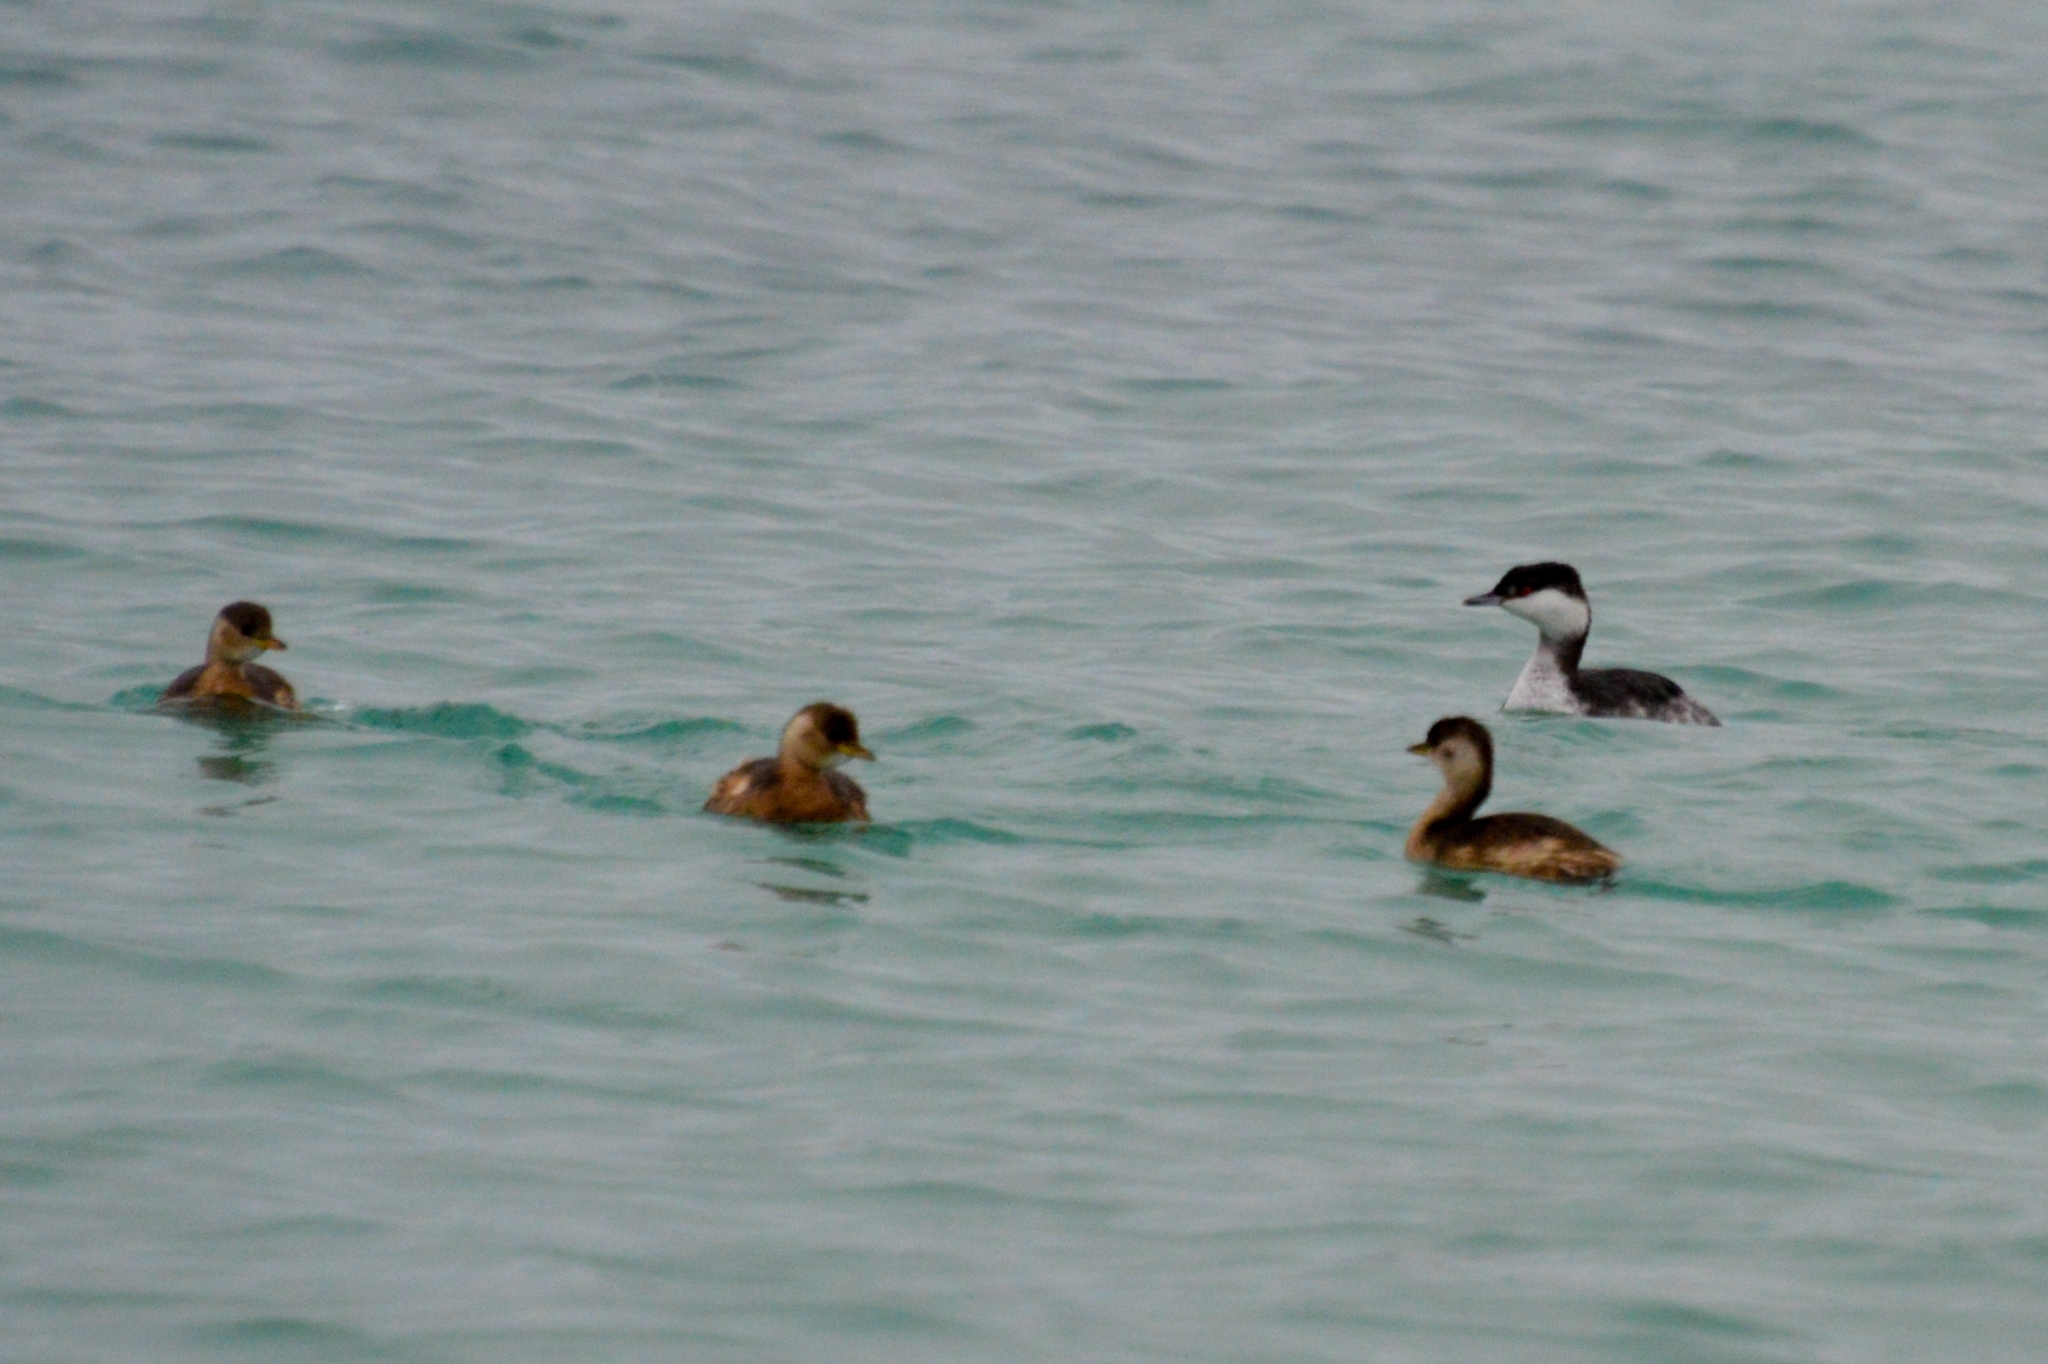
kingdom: Animalia
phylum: Chordata
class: Aves
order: Podicipediformes
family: Podicipedidae
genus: Tachybaptus
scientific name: Tachybaptus ruficollis
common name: Little grebe
